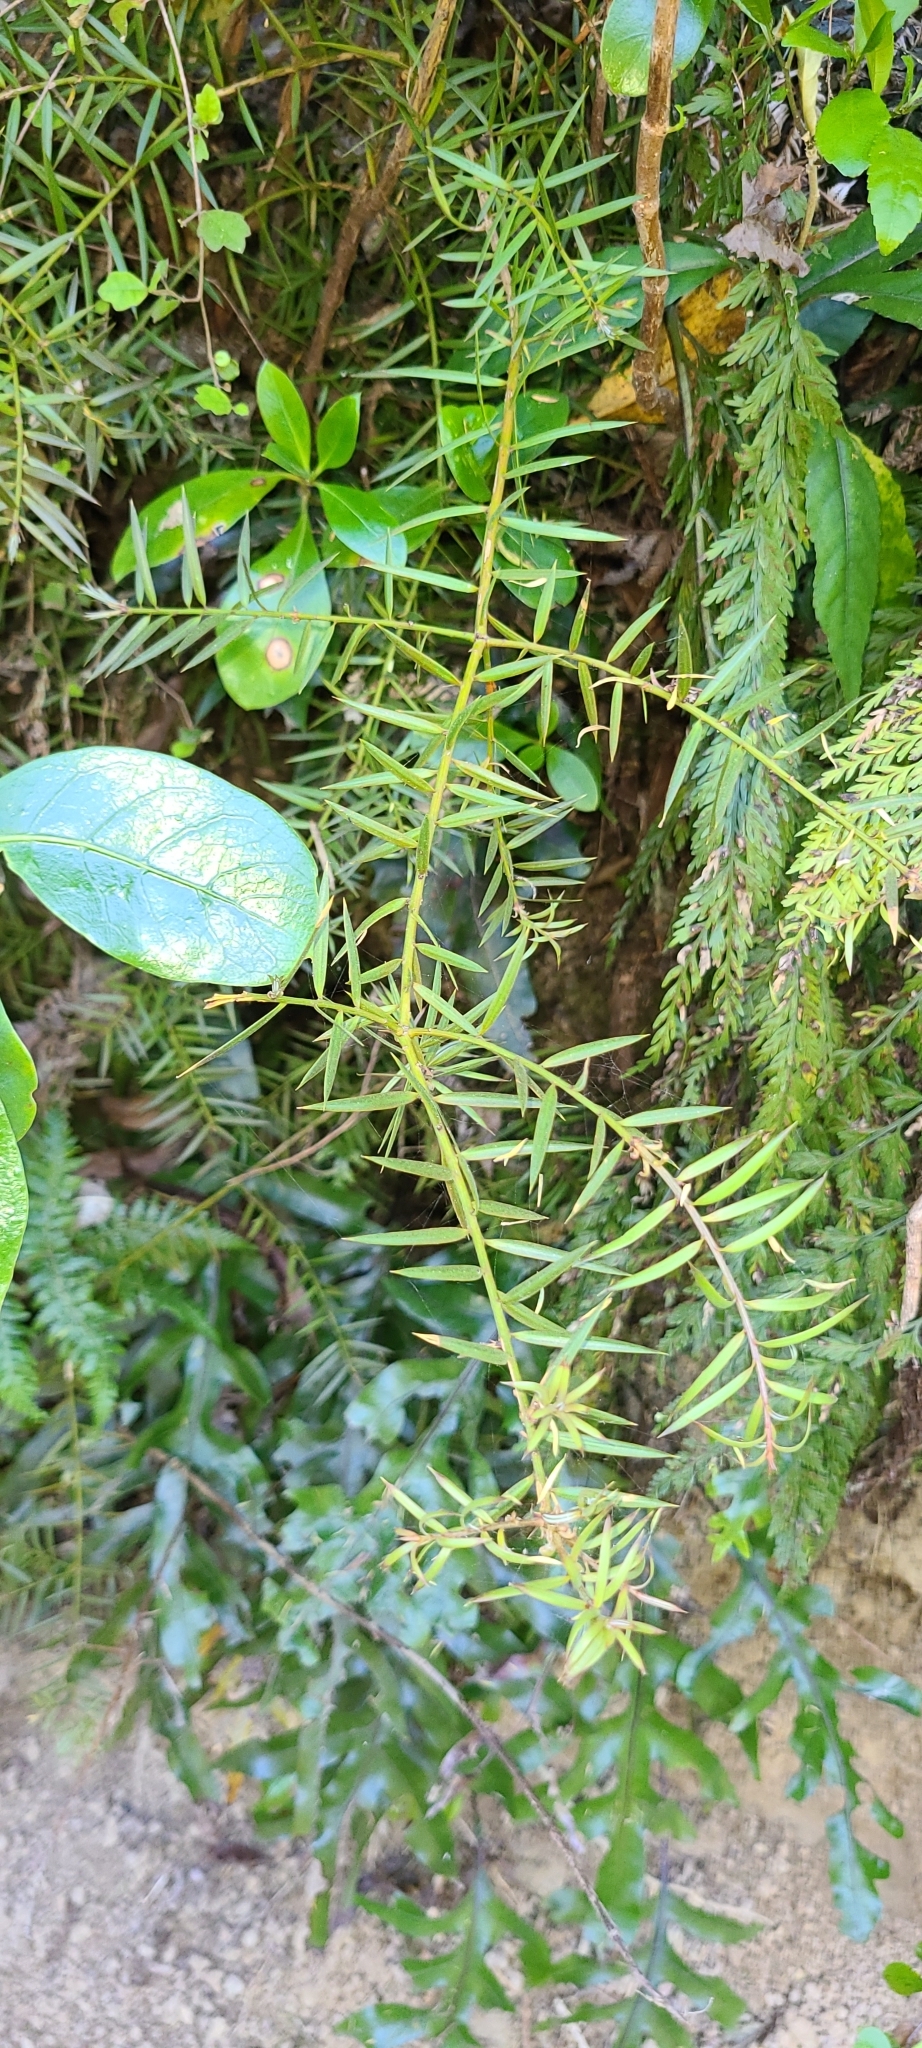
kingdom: Plantae
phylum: Tracheophyta
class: Pinopsida
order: Pinales
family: Podocarpaceae
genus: Podocarpus
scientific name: Podocarpus totara
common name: Totara
